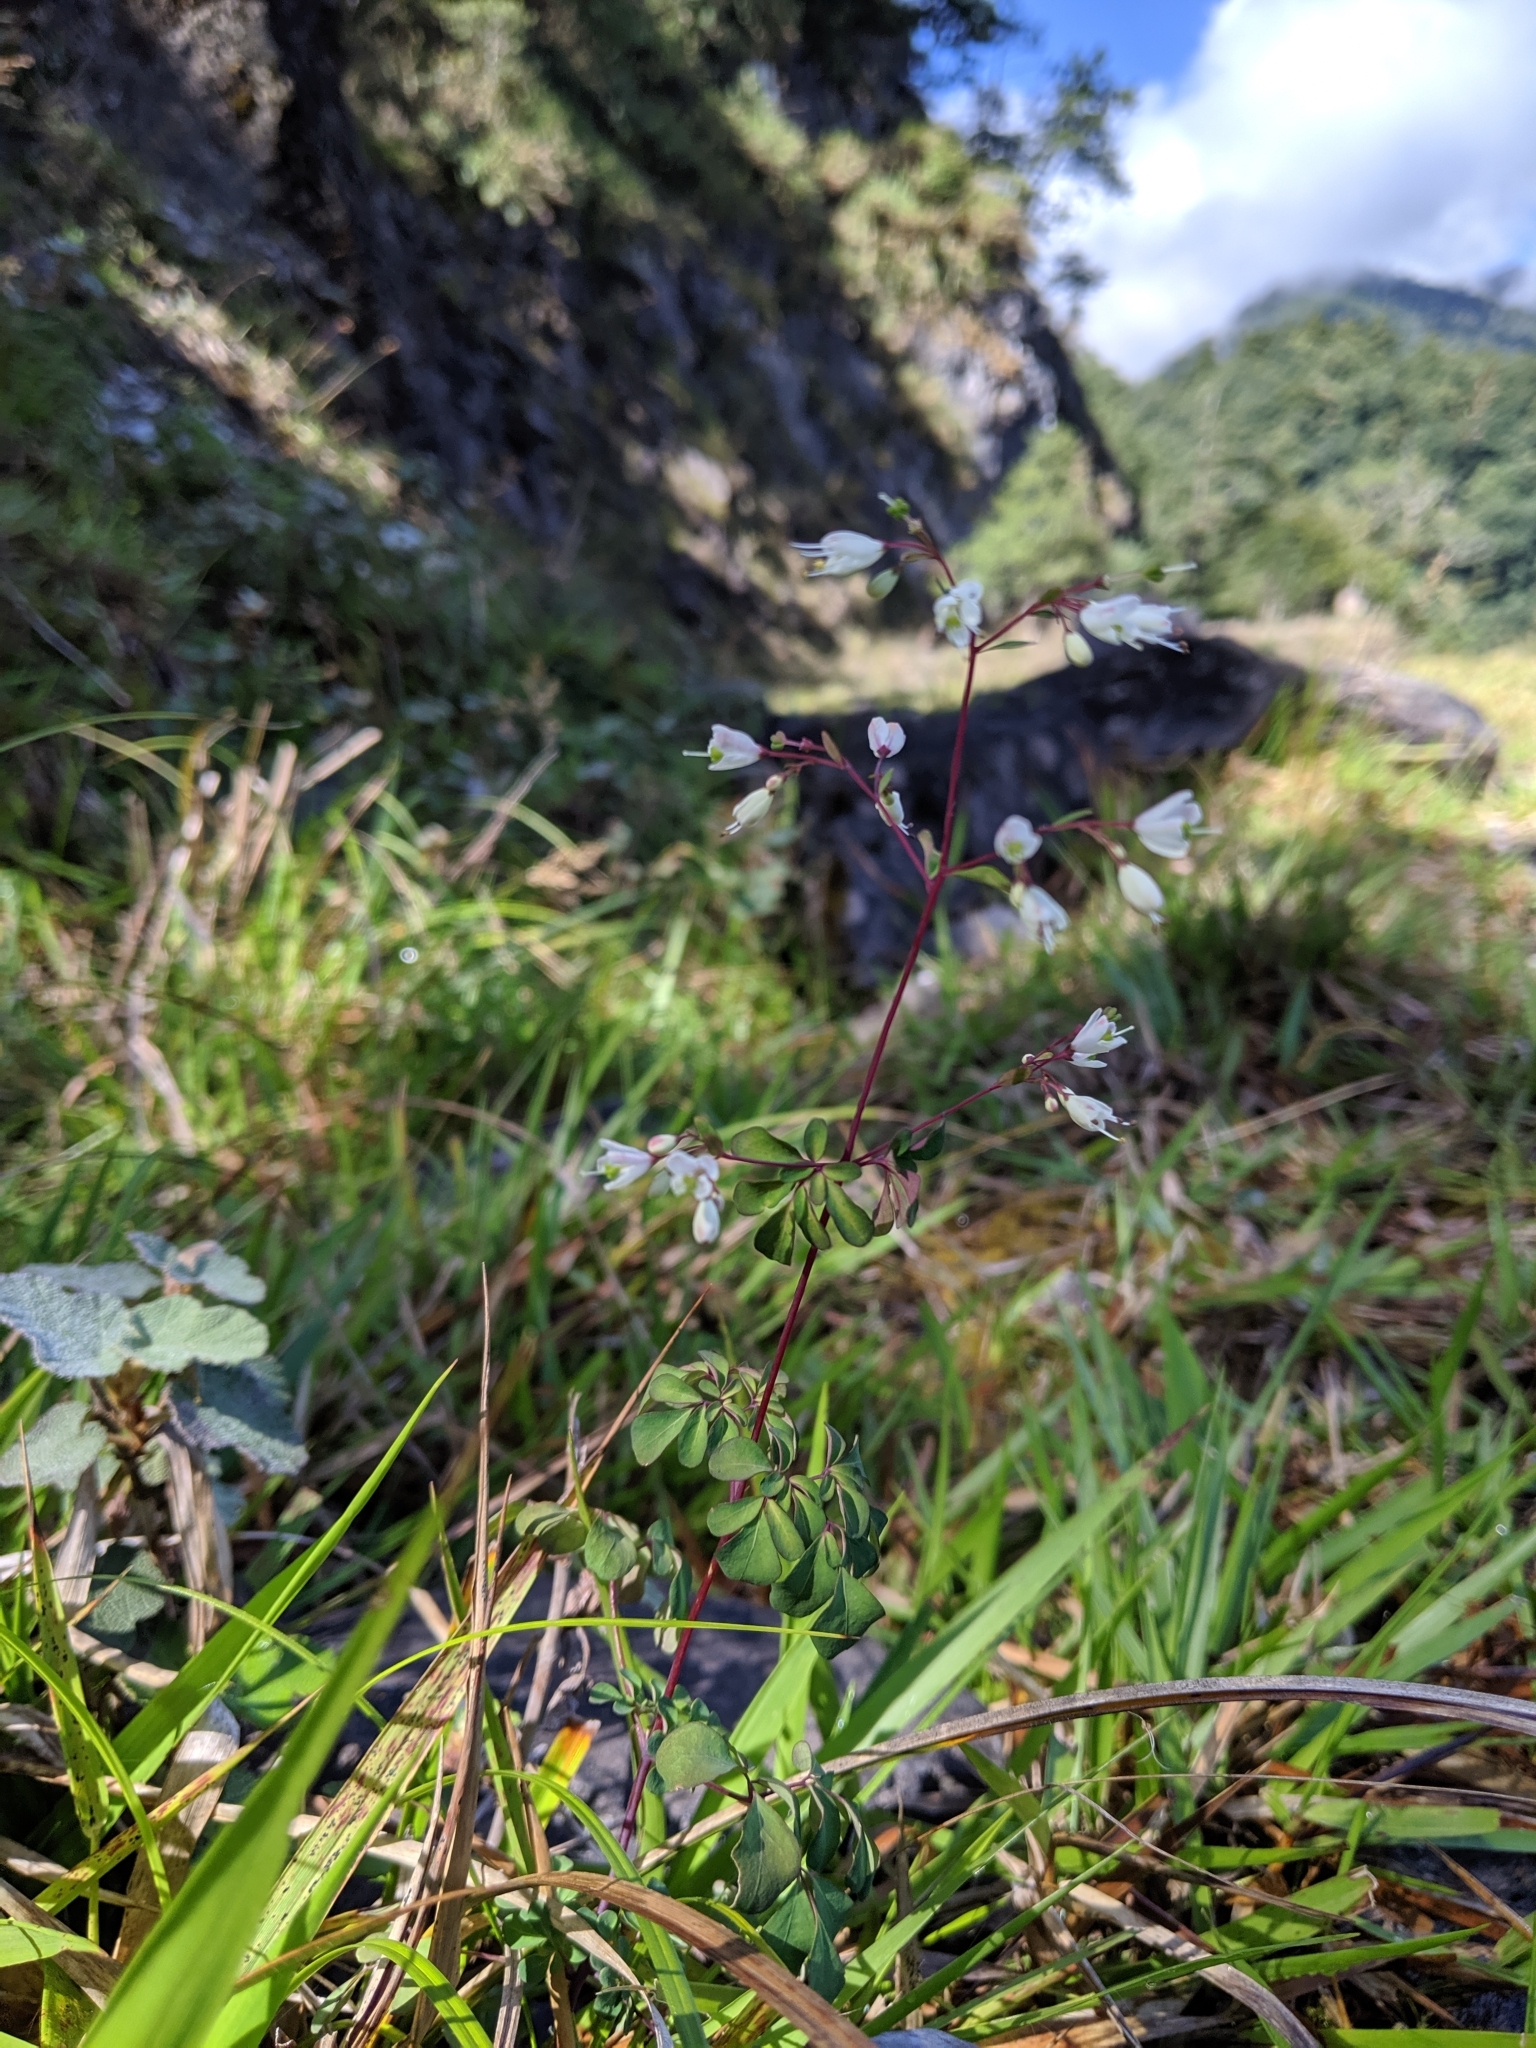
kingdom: Plantae
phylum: Tracheophyta
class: Magnoliopsida
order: Sapindales
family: Rutaceae
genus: Boenninghausenia
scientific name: Boenninghausenia albiflora
